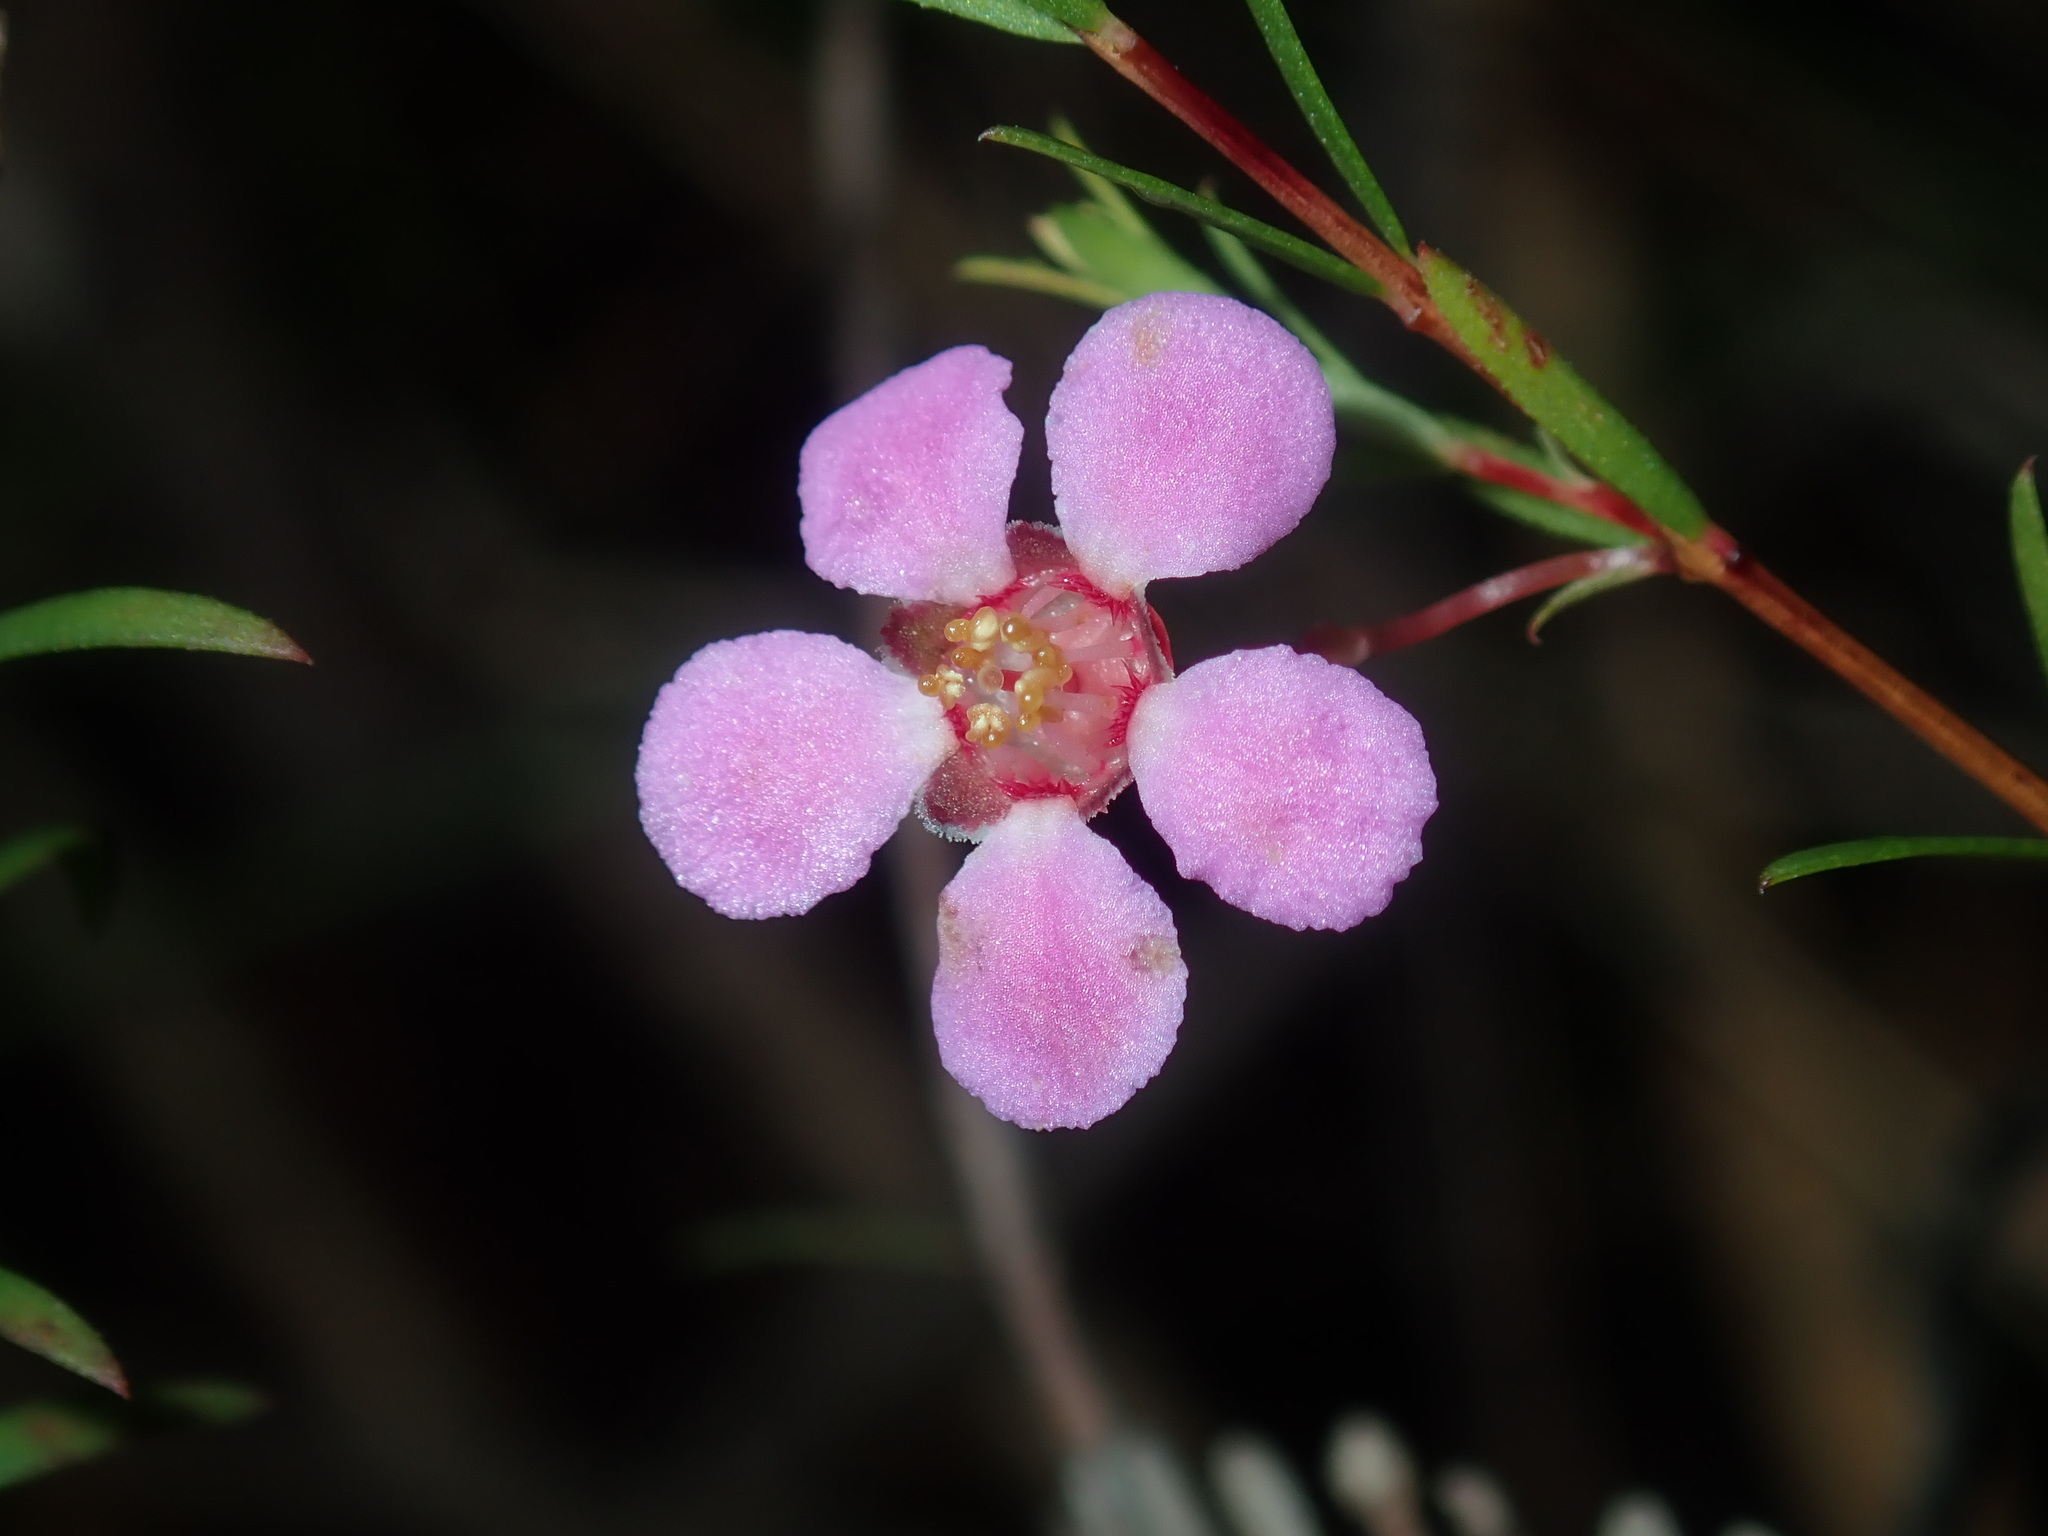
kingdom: Plantae
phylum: Tracheophyta
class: Magnoliopsida
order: Myrtales
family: Myrtaceae
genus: Euryomyrtus
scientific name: Euryomyrtus ramosissima
